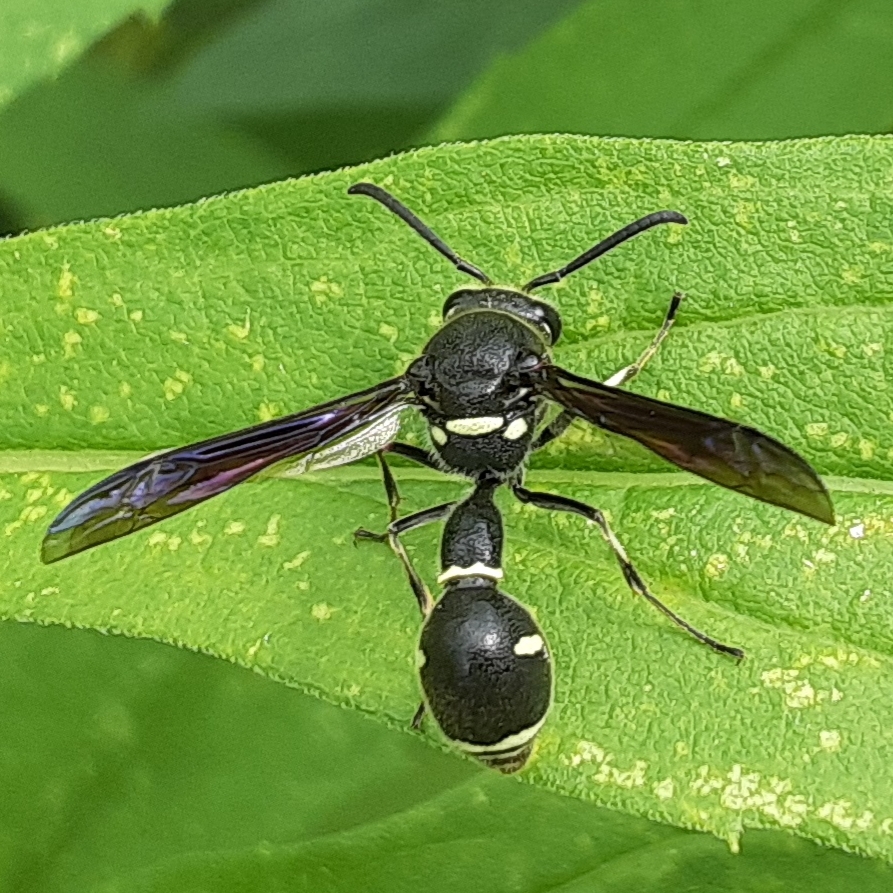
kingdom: Animalia
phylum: Arthropoda
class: Insecta
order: Hymenoptera
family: Vespidae
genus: Eumenes
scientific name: Eumenes fraternus
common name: Fraternal potter wasp
